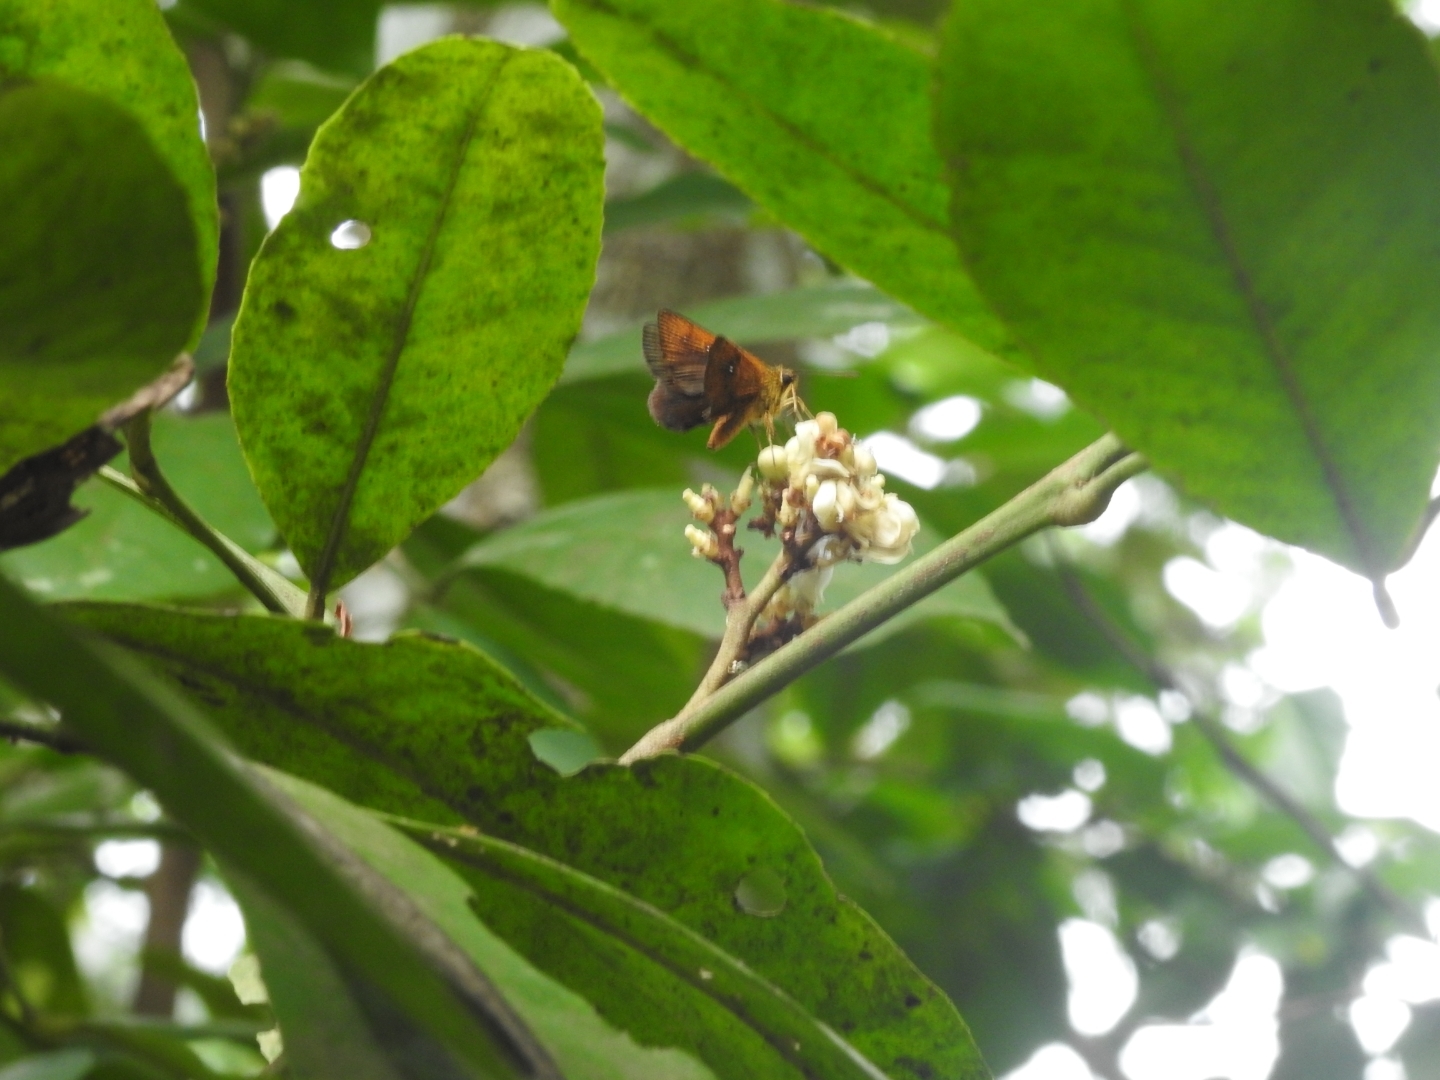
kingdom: Animalia
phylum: Arthropoda
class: Insecta
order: Lepidoptera
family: Hesperiidae
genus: Iambrix
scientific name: Iambrix salsala
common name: Chestnut bob
